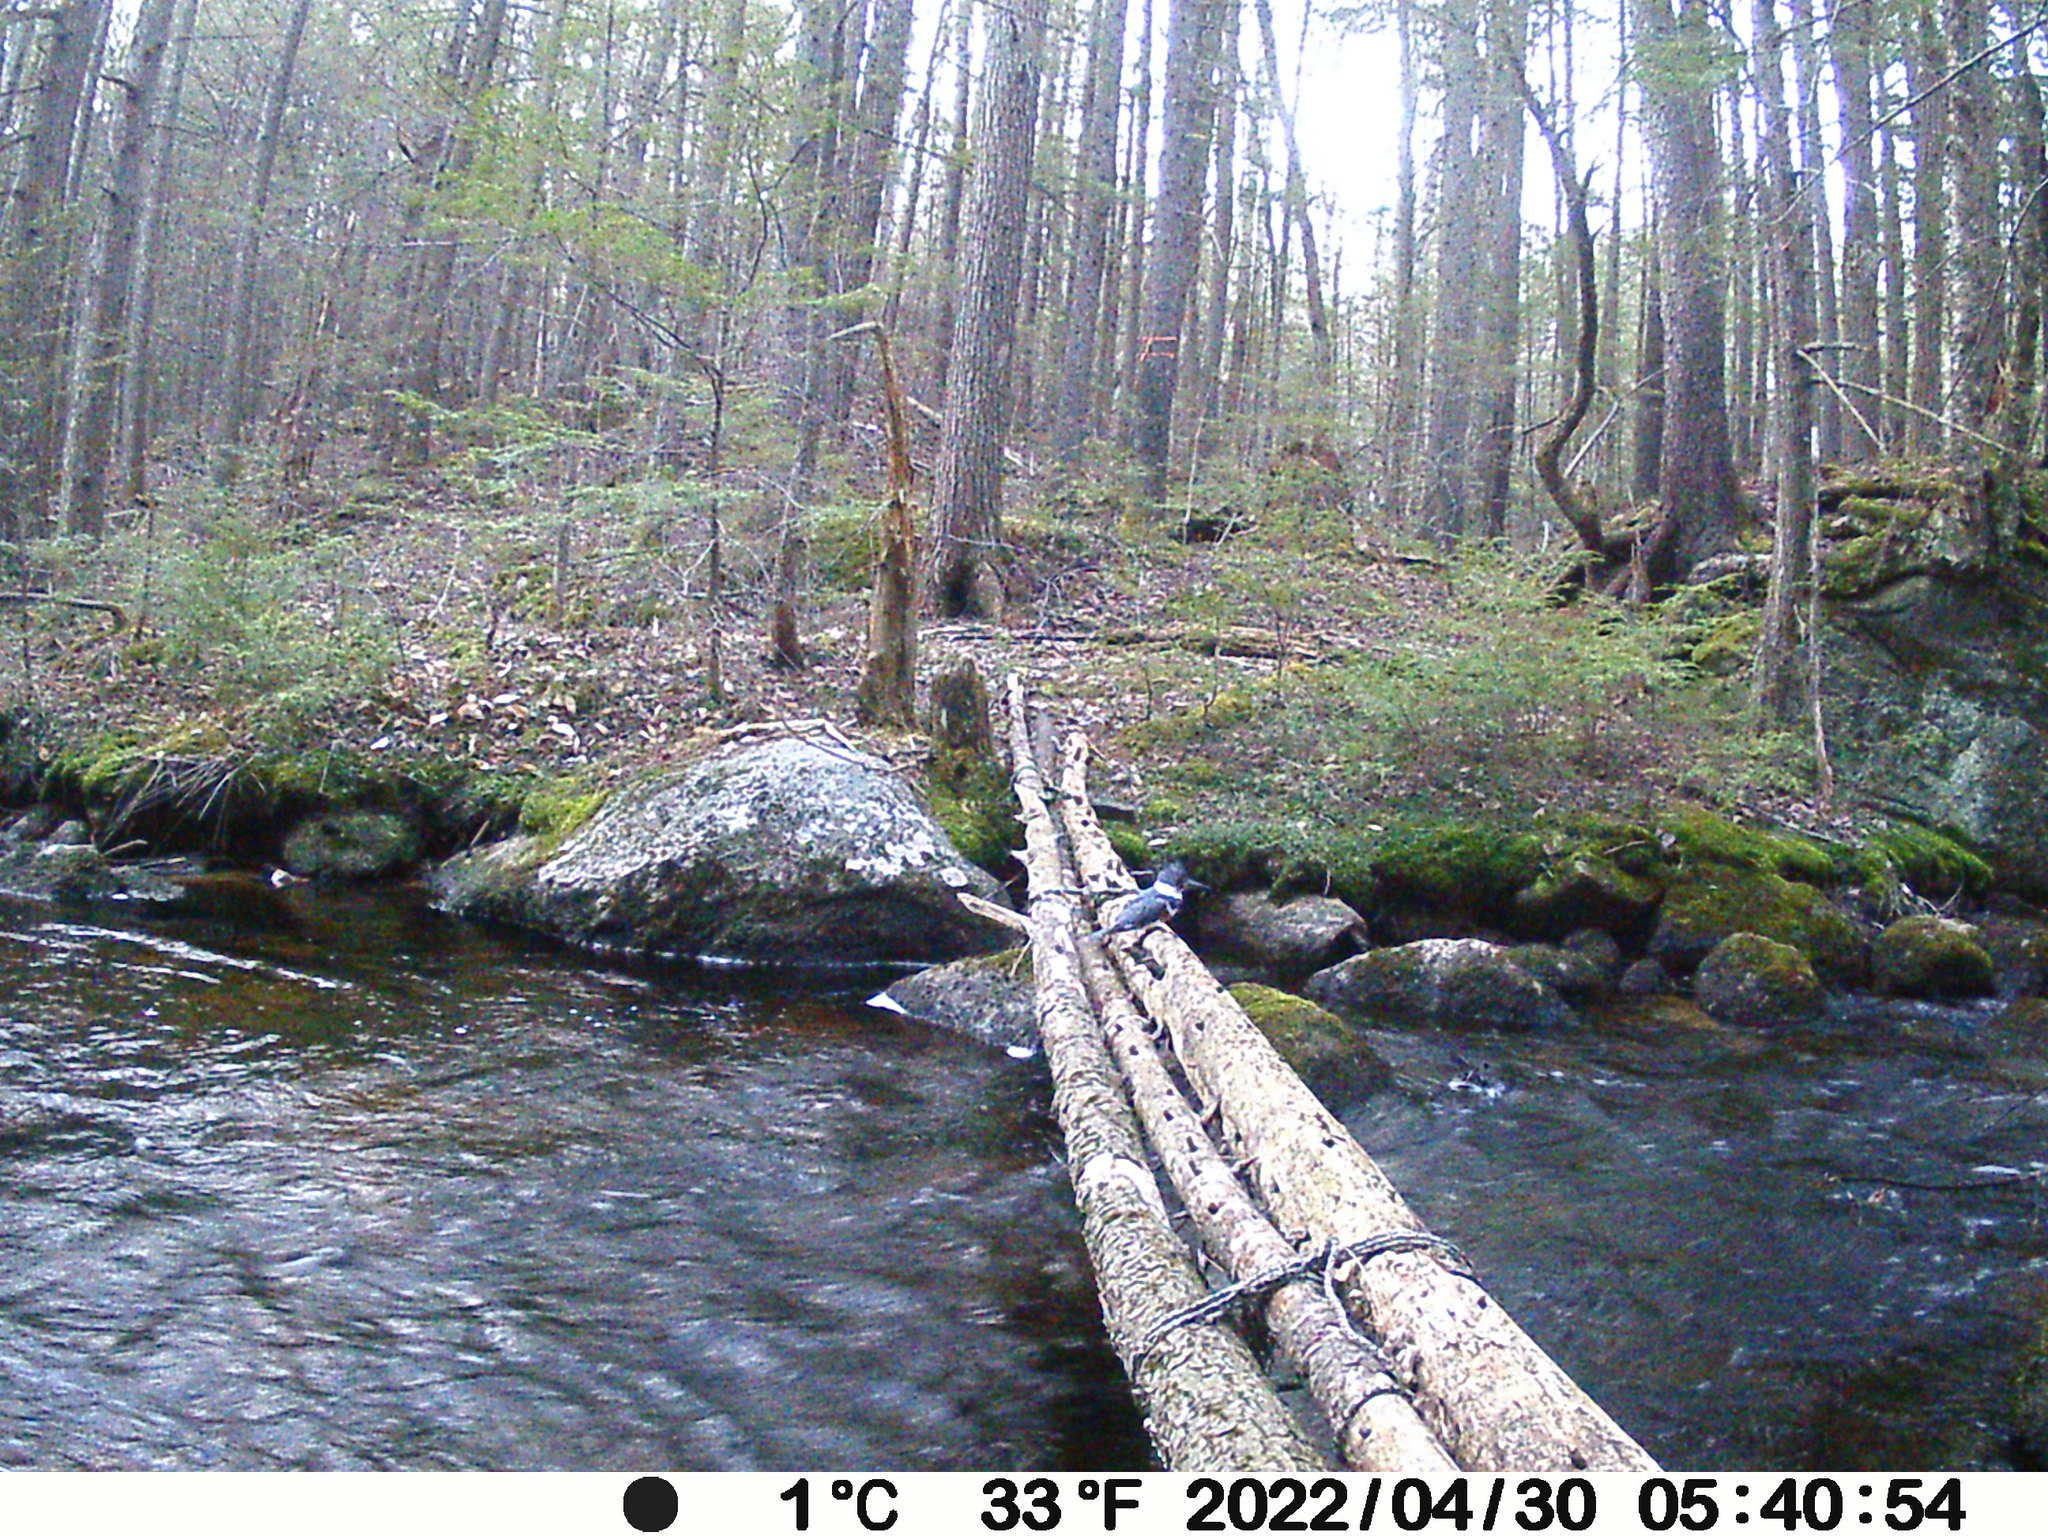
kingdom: Animalia
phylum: Chordata
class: Aves
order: Coraciiformes
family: Alcedinidae
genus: Megaceryle
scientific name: Megaceryle alcyon
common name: Belted kingfisher
